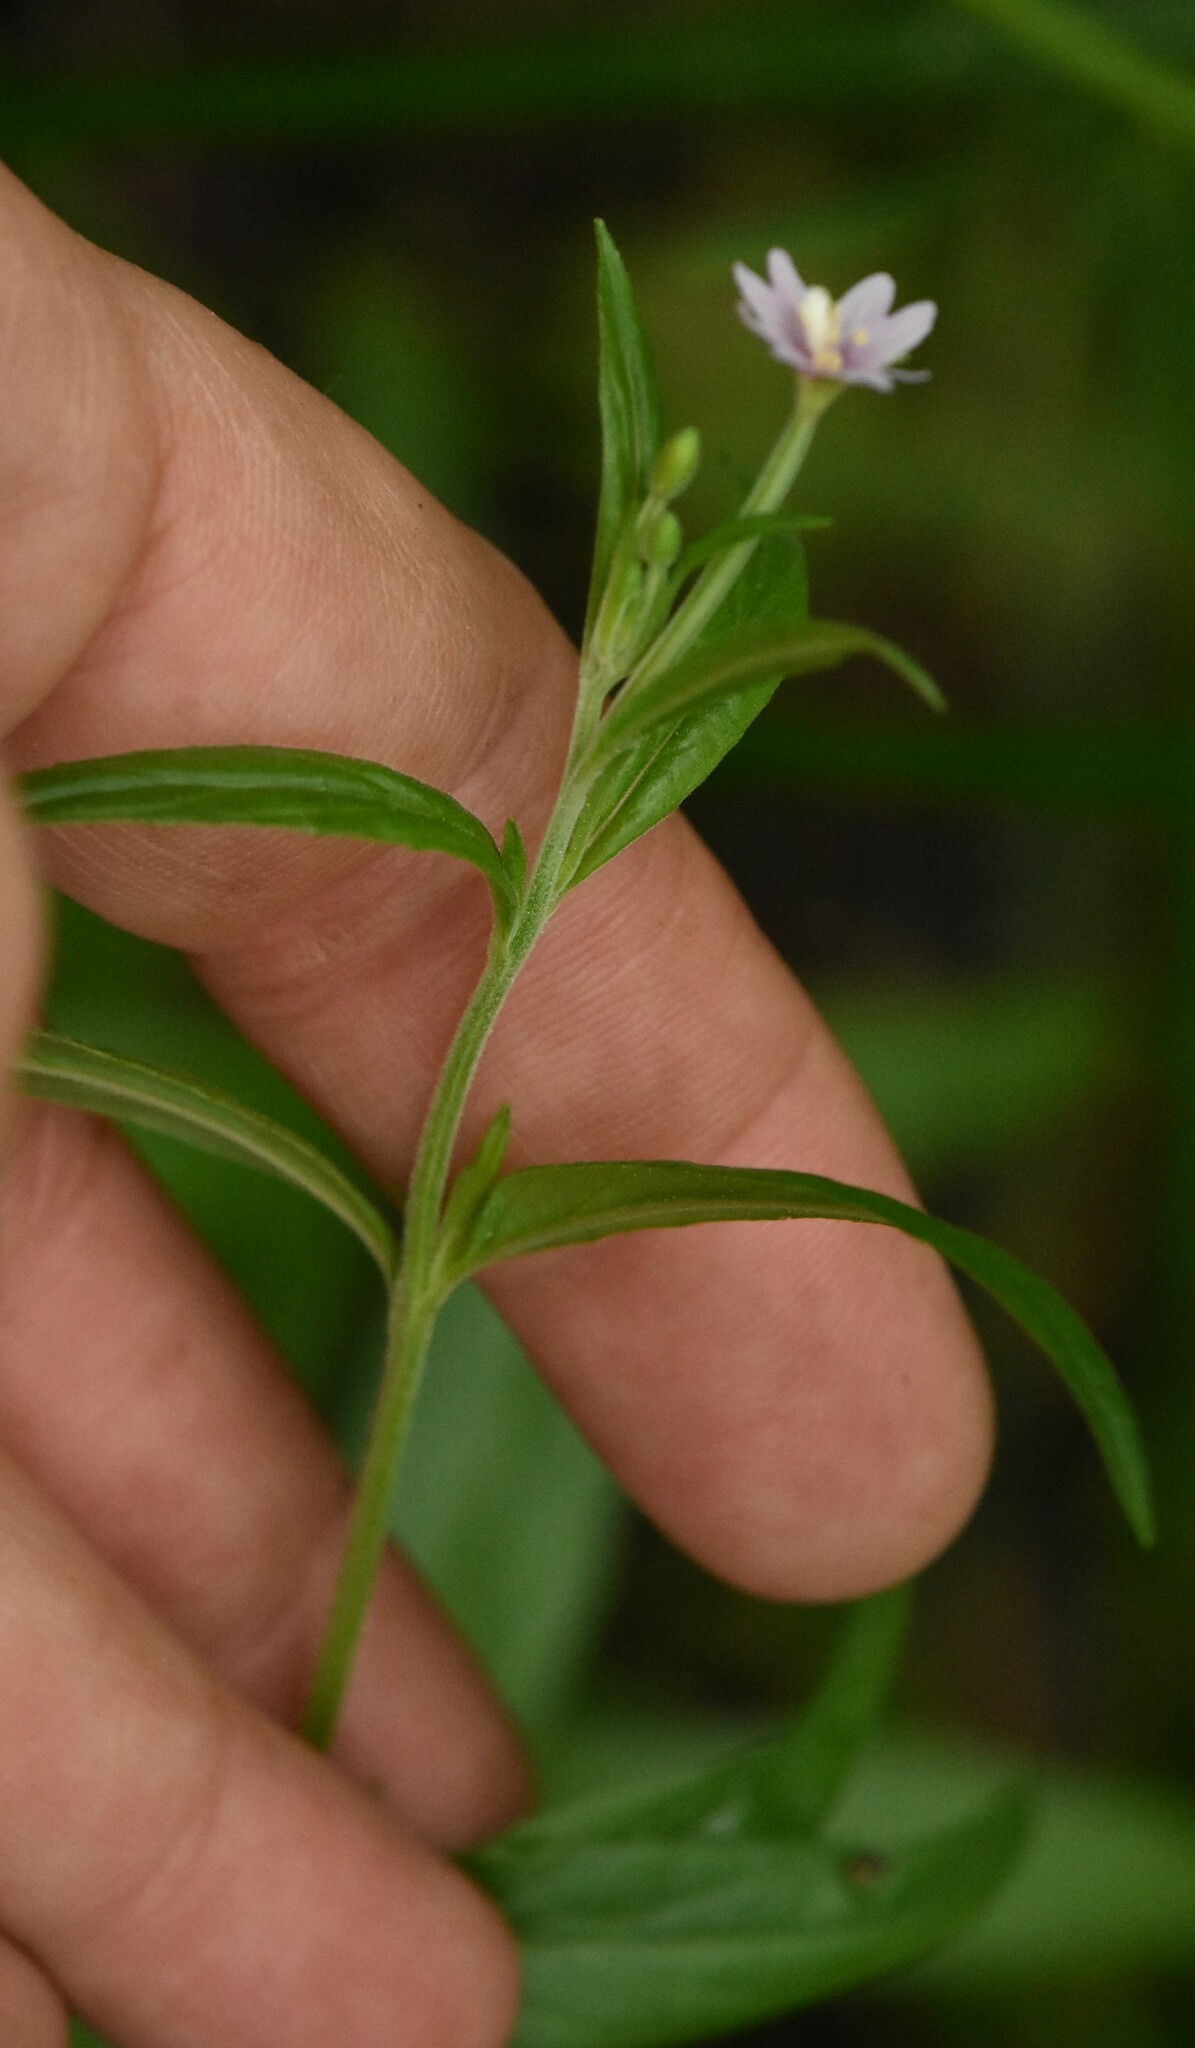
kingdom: Plantae
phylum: Tracheophyta
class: Magnoliopsida
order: Myrtales
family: Onagraceae
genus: Epilobium
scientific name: Epilobium palustre
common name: Marsh willowherb
